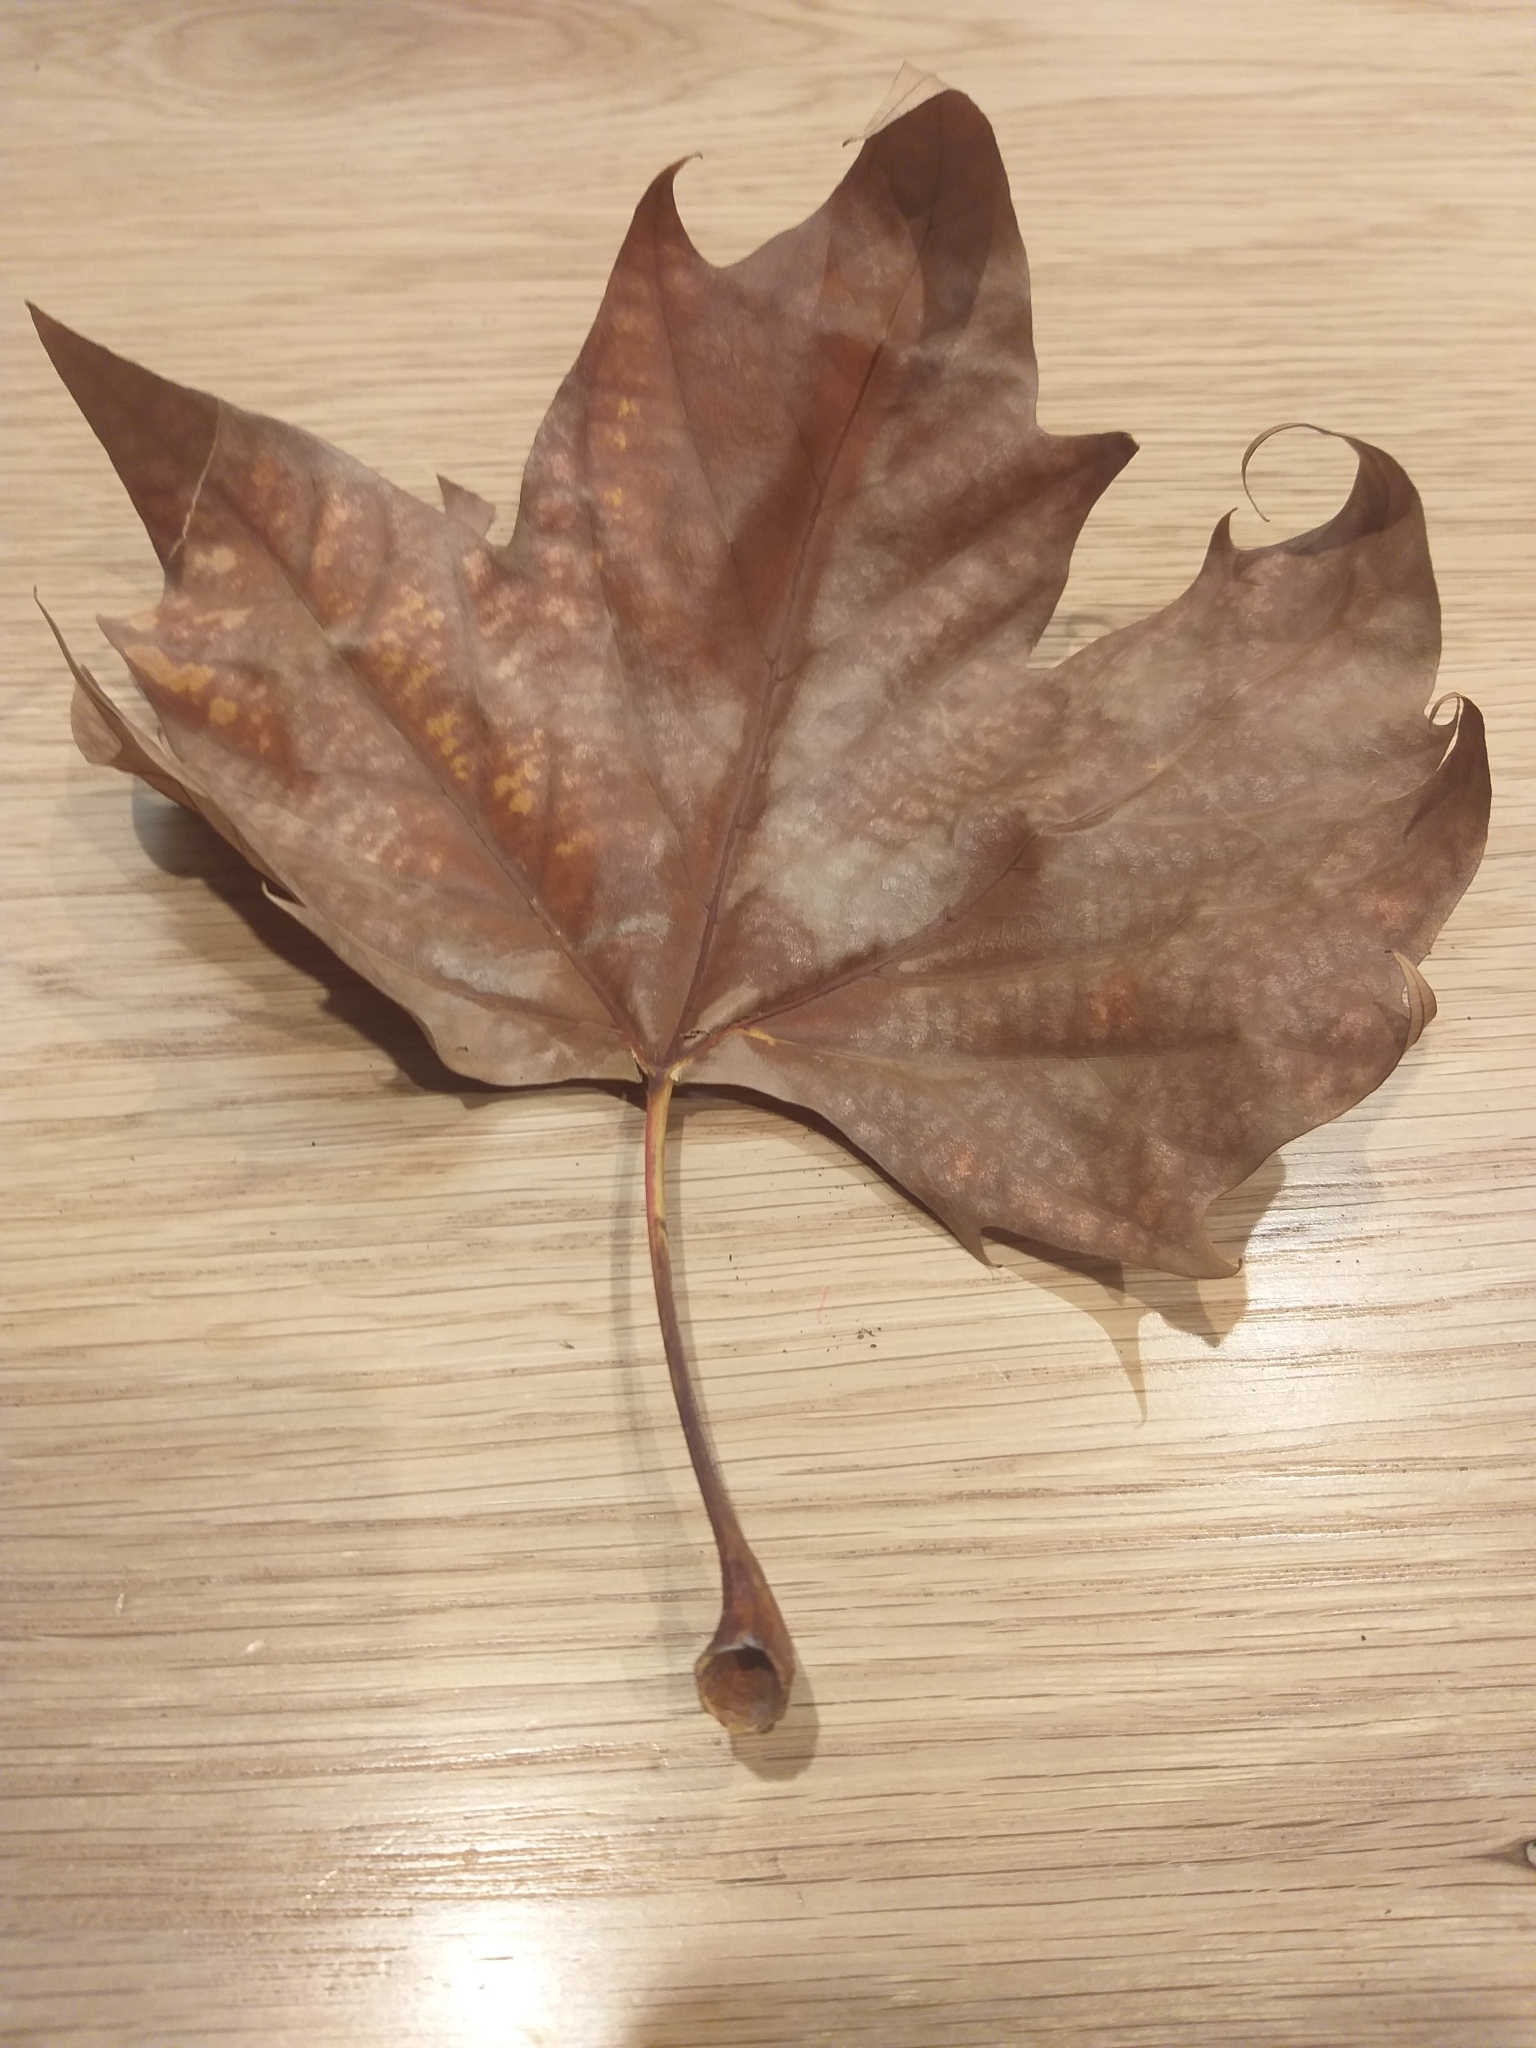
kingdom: Plantae
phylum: Tracheophyta
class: Magnoliopsida
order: Proteales
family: Platanaceae
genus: Platanus
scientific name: Platanus hispanica
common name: London plane
